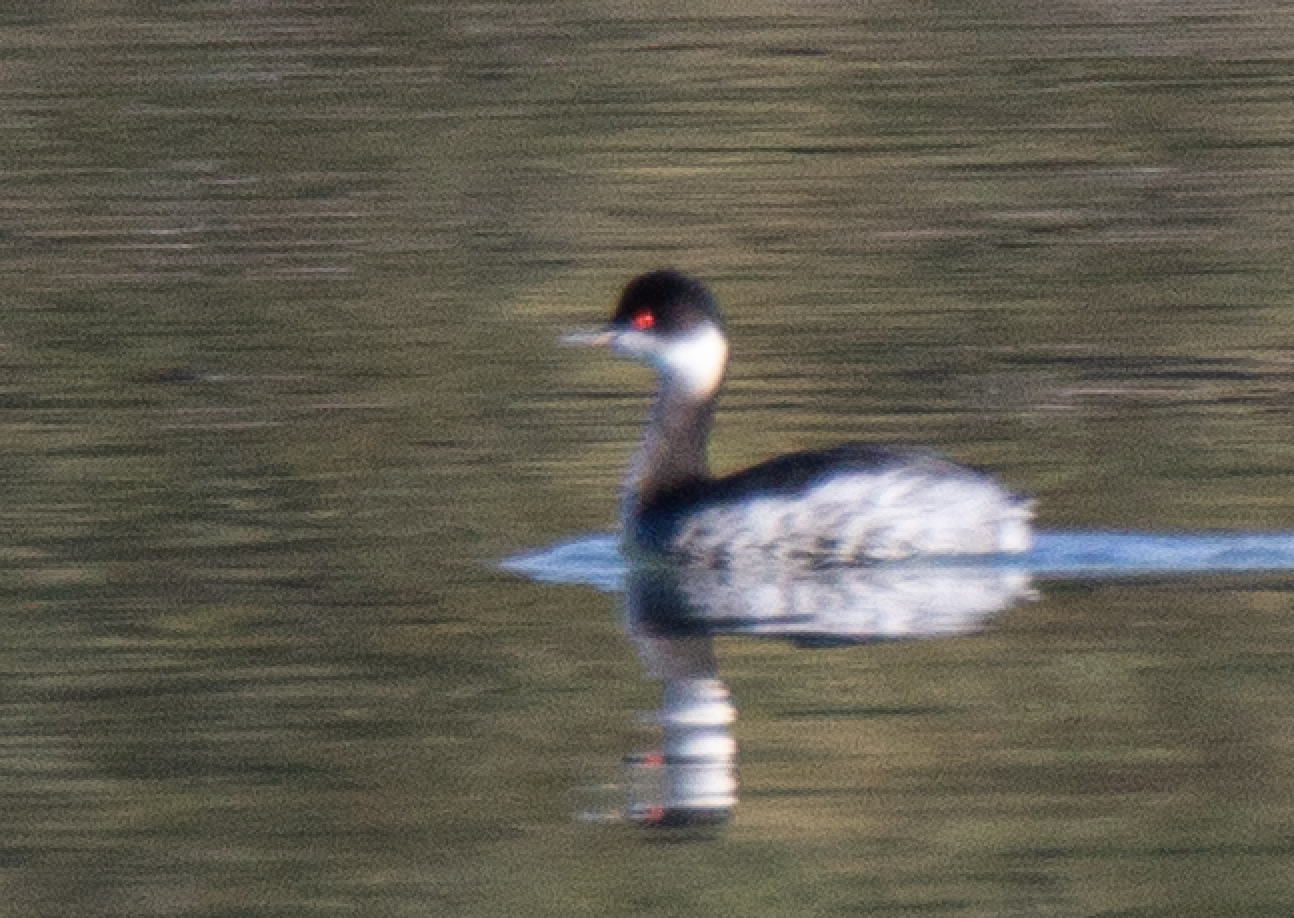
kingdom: Animalia
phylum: Chordata
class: Aves
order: Podicipediformes
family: Podicipedidae
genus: Podiceps
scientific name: Podiceps nigricollis
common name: Black-necked grebe
